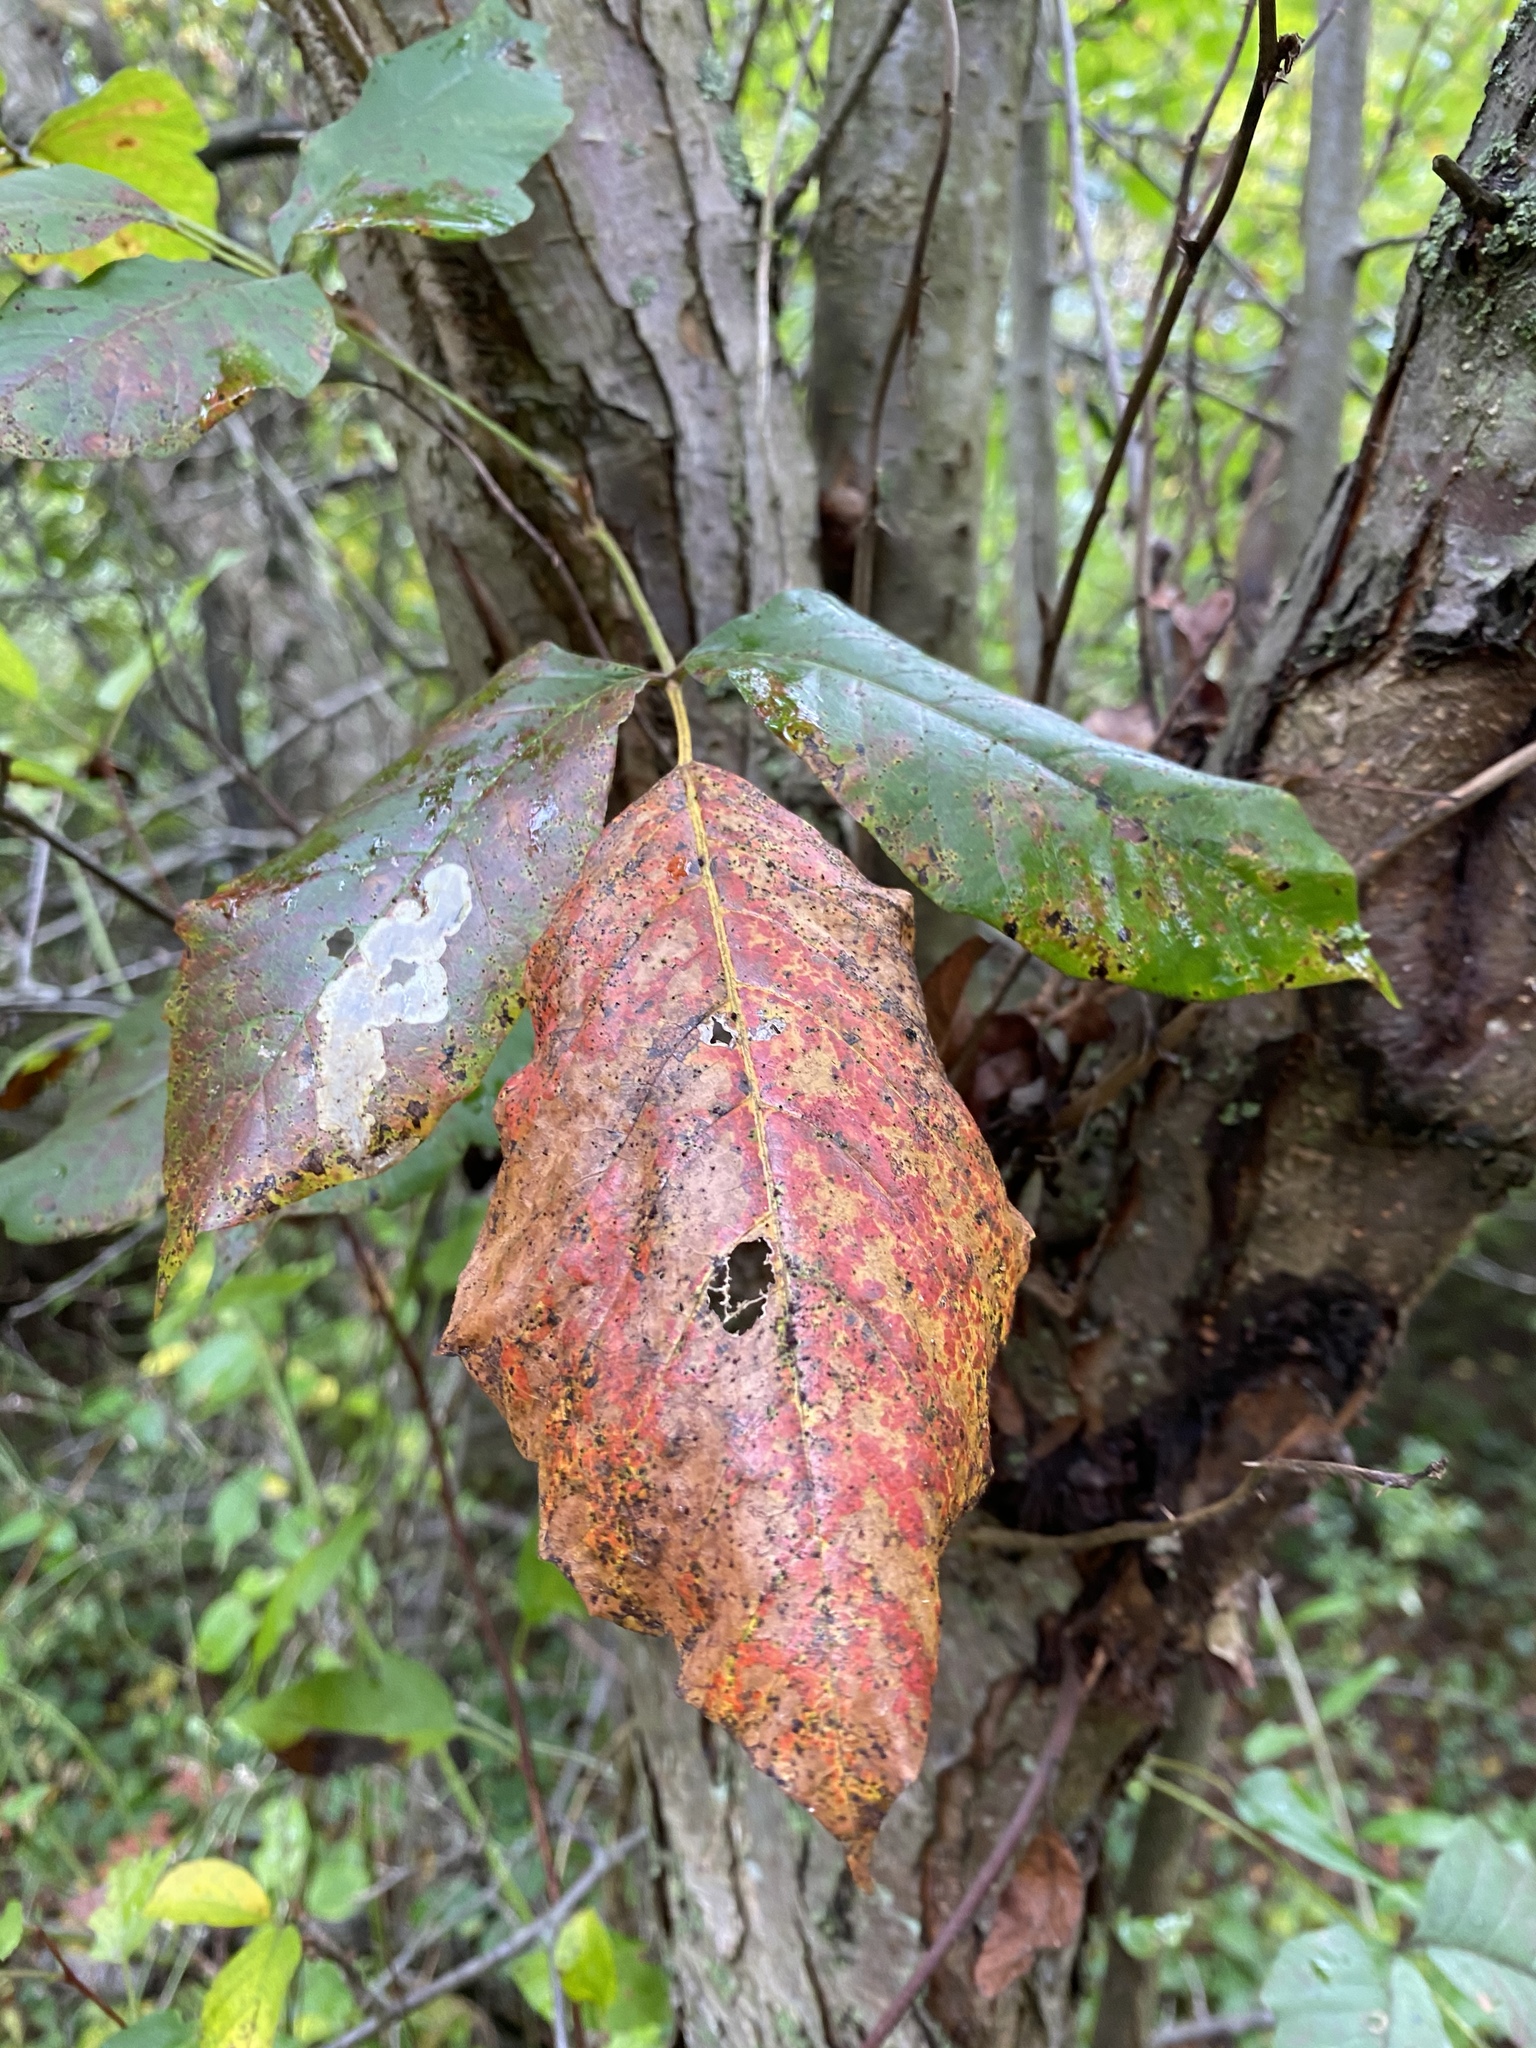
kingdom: Plantae
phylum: Tracheophyta
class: Magnoliopsida
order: Sapindales
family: Anacardiaceae
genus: Toxicodendron
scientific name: Toxicodendron radicans
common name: Poison ivy
